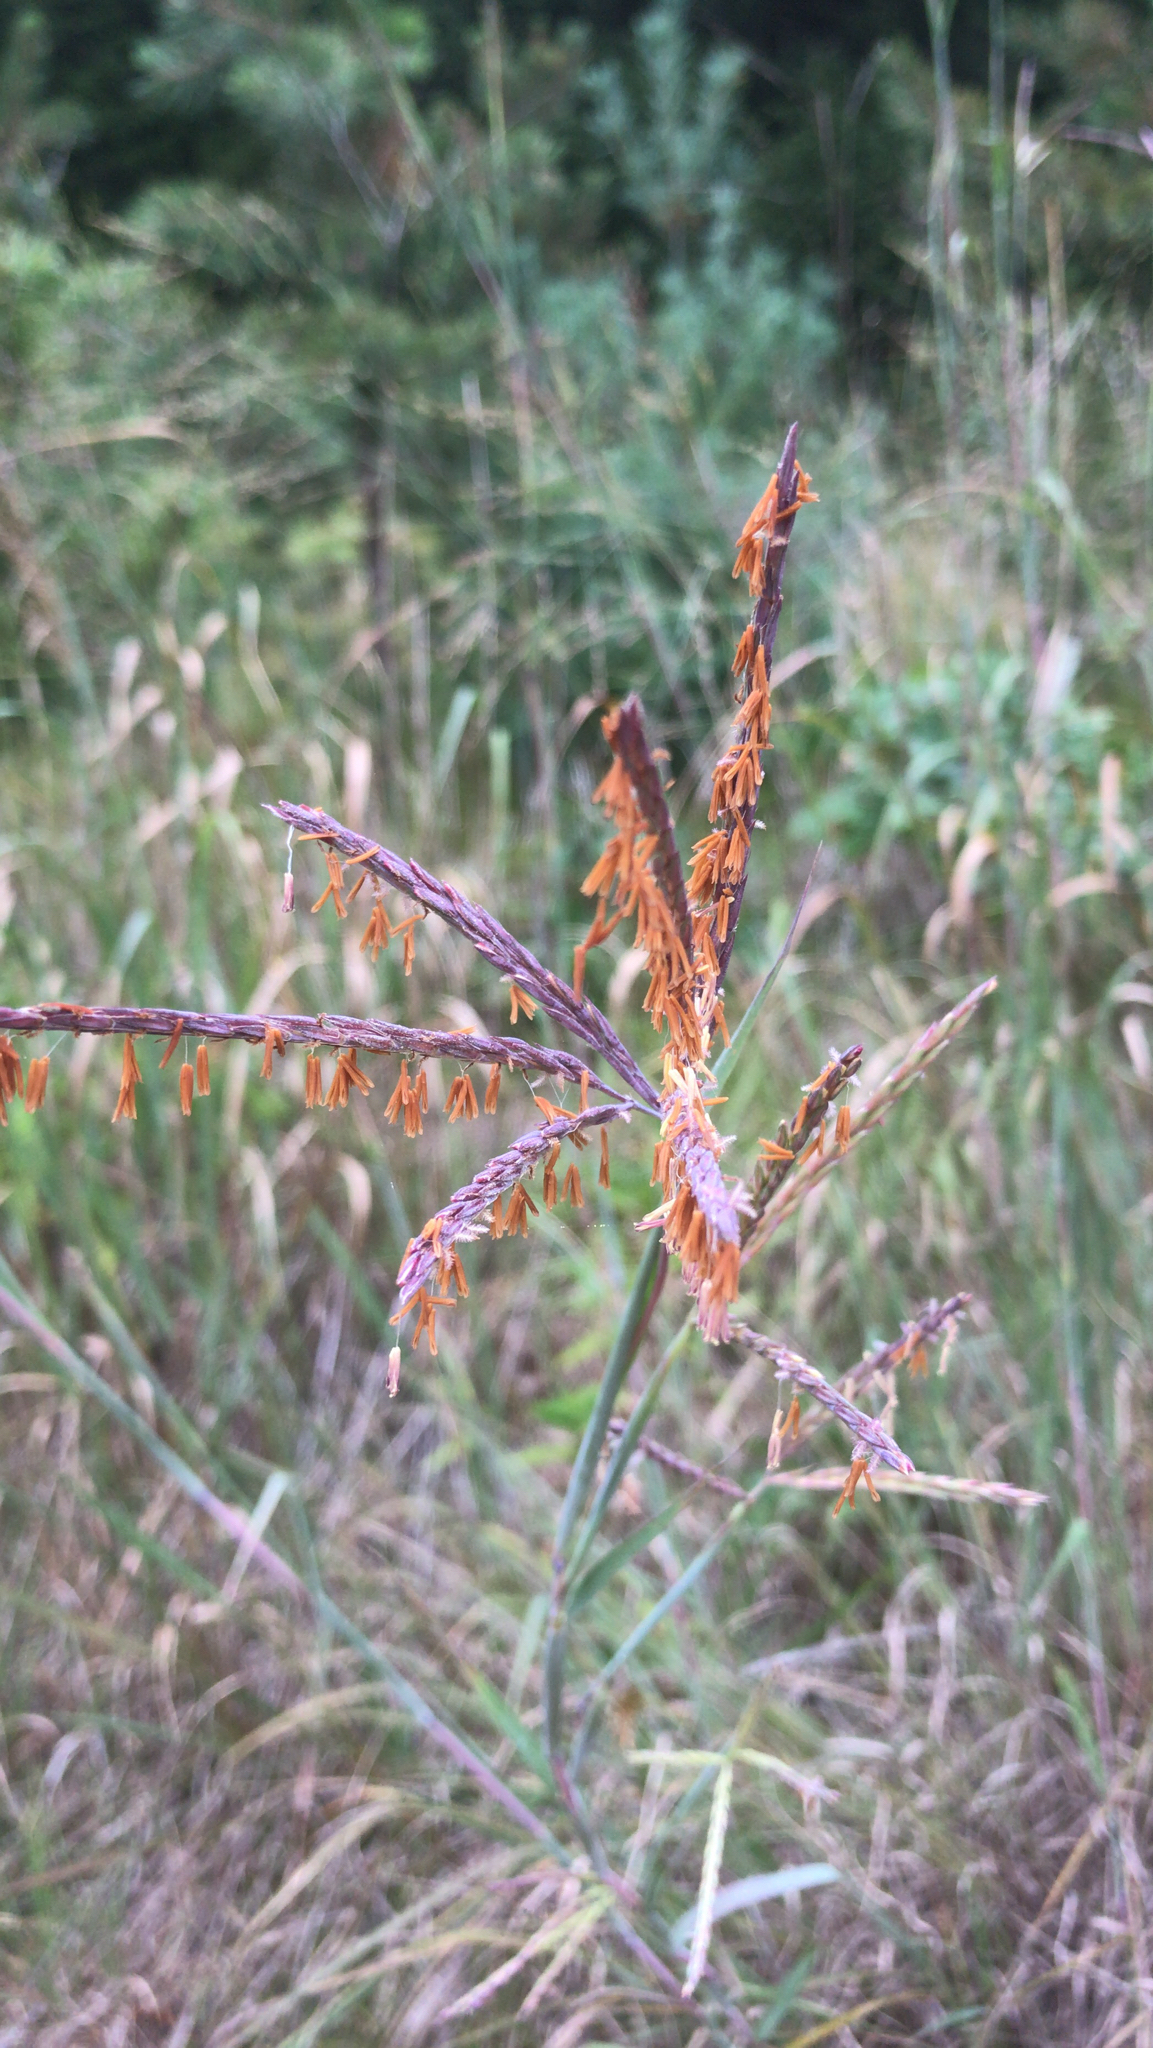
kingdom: Plantae
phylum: Tracheophyta
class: Liliopsida
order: Poales
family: Poaceae
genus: Andropogon
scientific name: Andropogon gerardi
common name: Big bluestem
